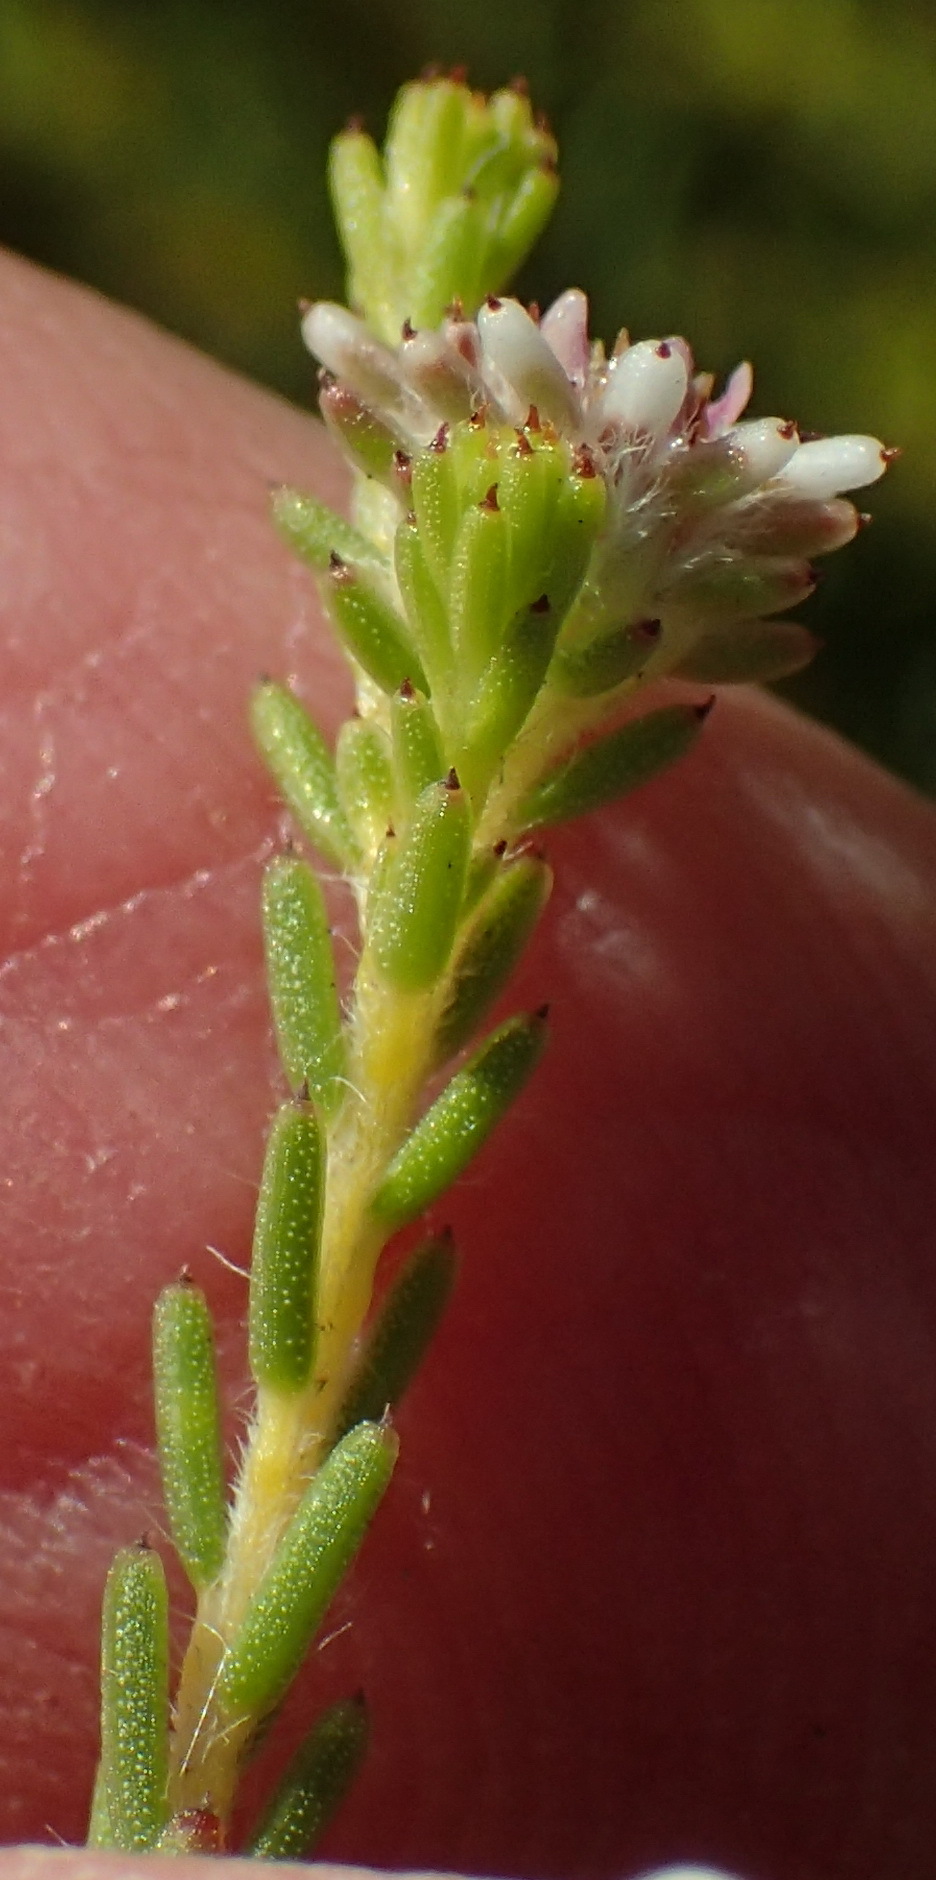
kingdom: Plantae
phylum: Tracheophyta
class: Magnoliopsida
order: Bruniales
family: Bruniaceae
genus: Staavia
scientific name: Staavia radiata
